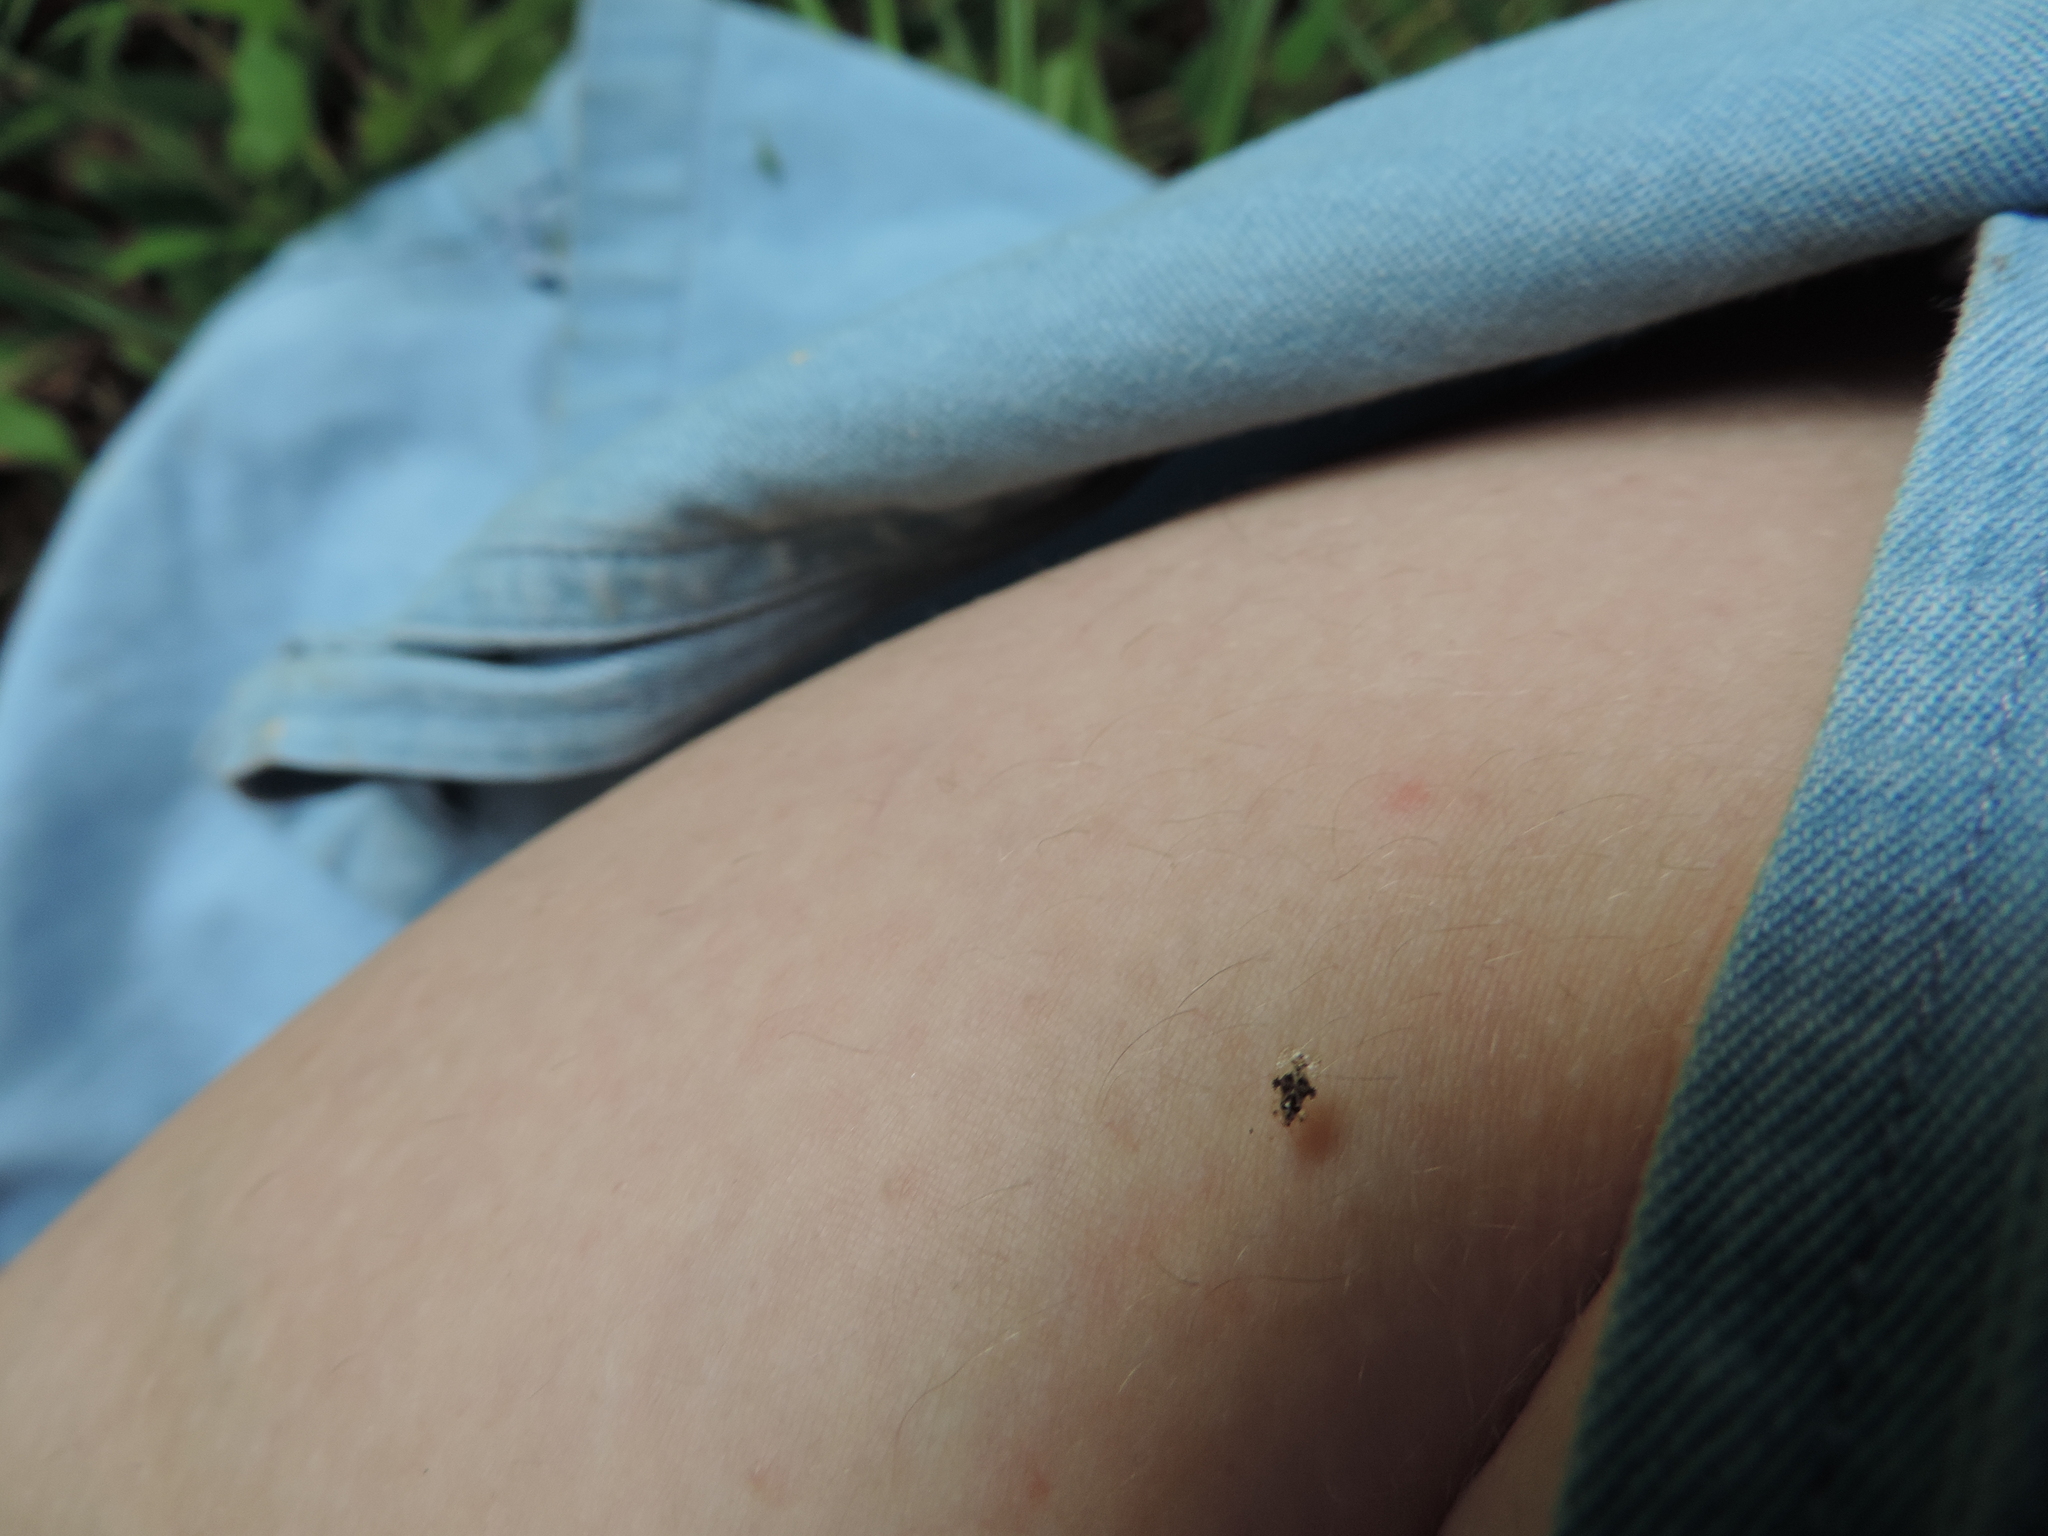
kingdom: Animalia
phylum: Arthropoda
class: Insecta
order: Hemiptera
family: Tingidae
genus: Corythucha
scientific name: Corythucha arcuata
